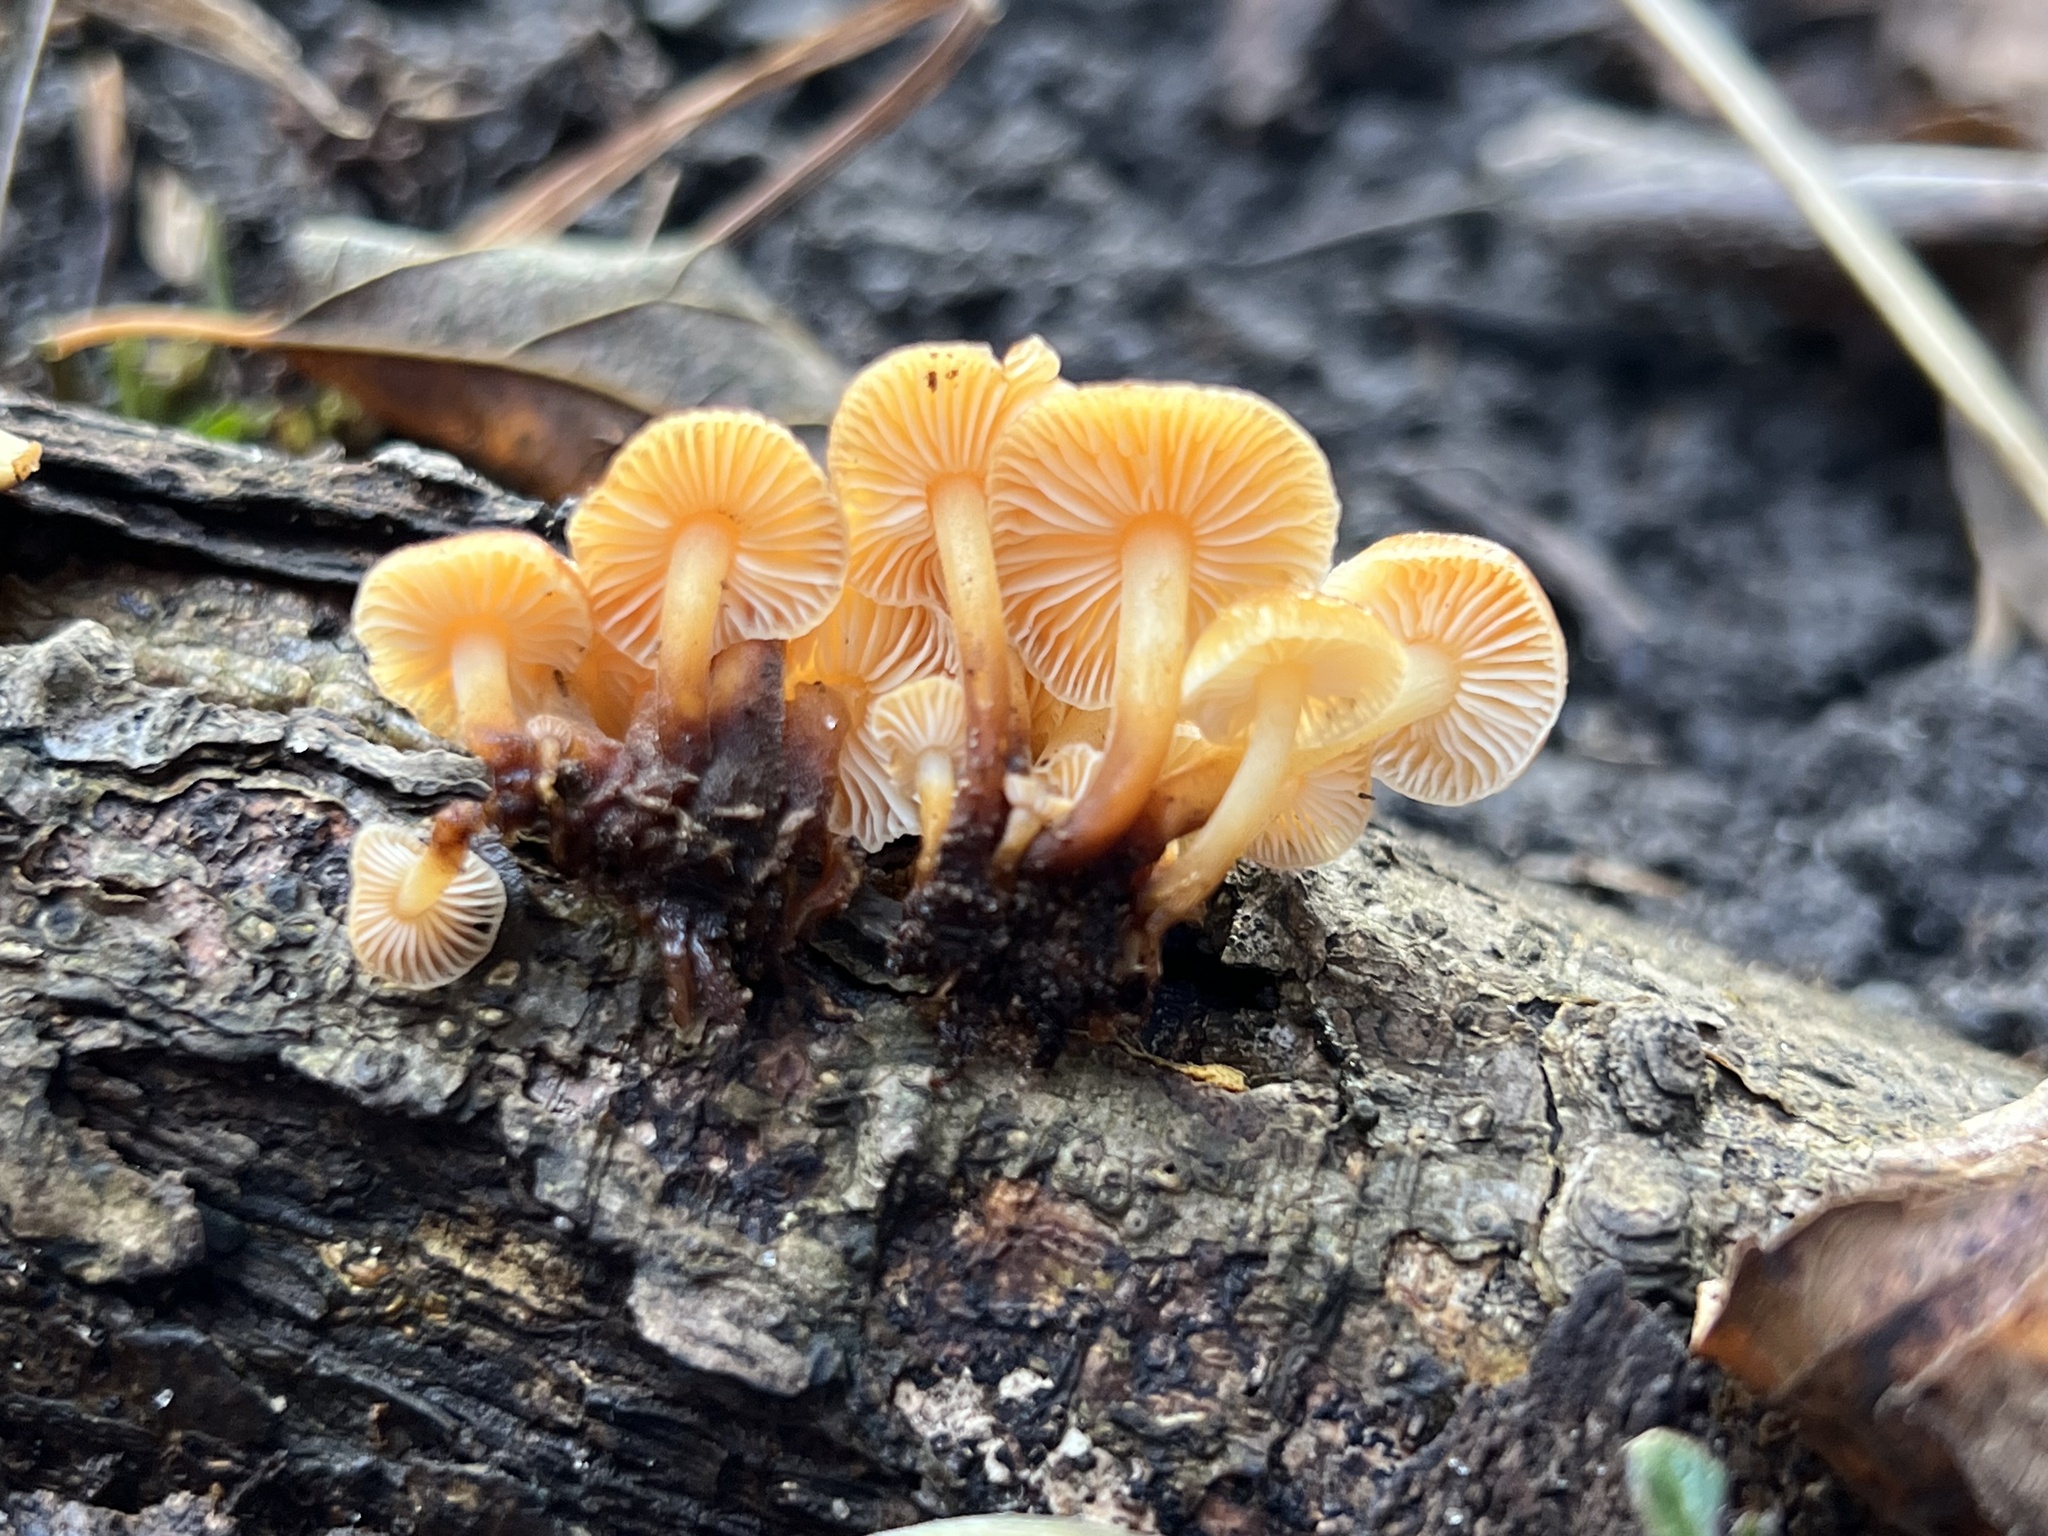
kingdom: Fungi
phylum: Basidiomycota
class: Agaricomycetes
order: Agaricales
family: Physalacriaceae
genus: Flammulina
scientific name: Flammulina velutipes
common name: Velvet shank
